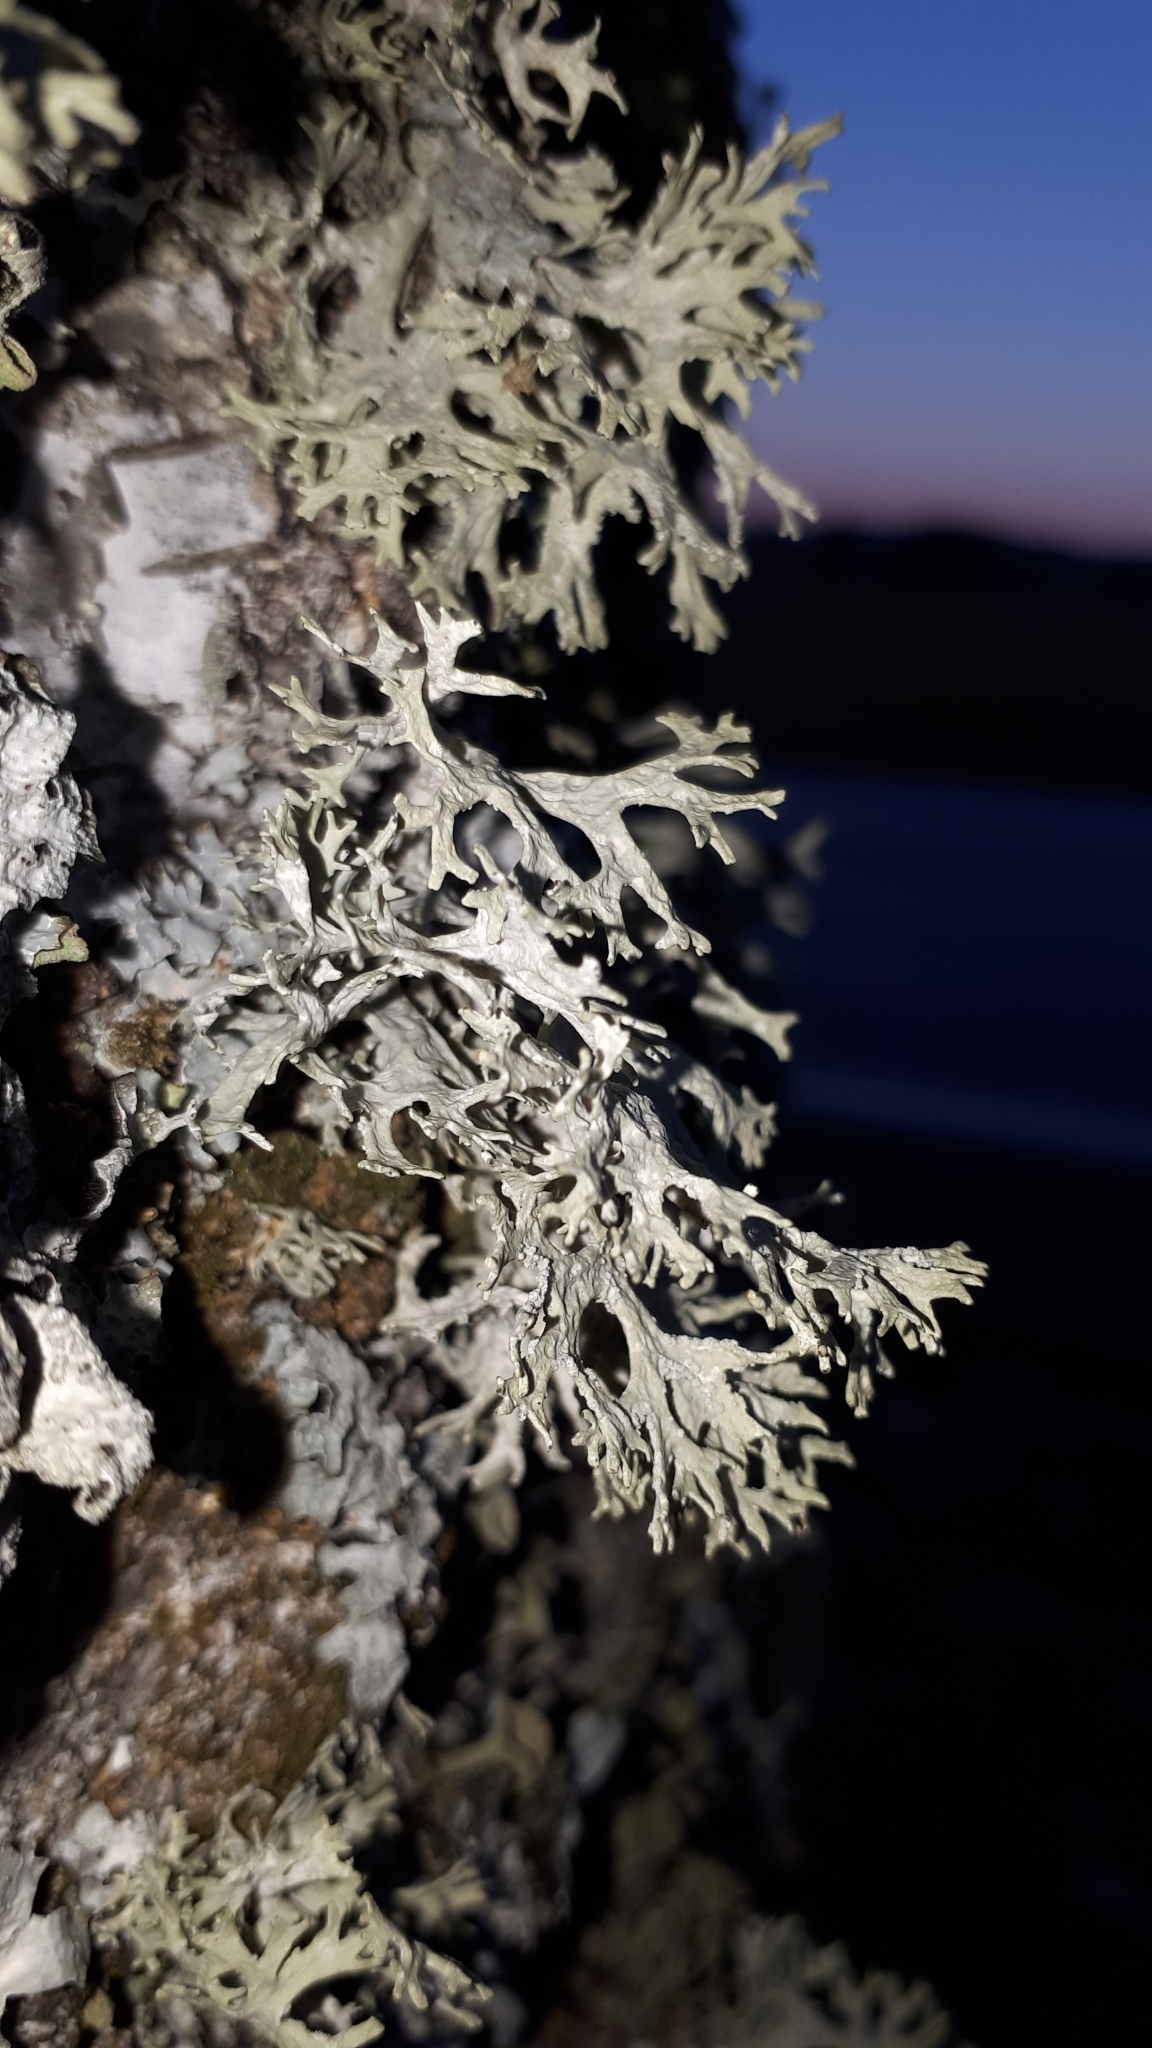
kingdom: Fungi
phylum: Ascomycota
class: Lecanoromycetes
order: Lecanorales
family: Parmeliaceae
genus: Evernia
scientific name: Evernia prunastri
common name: Oak moss
